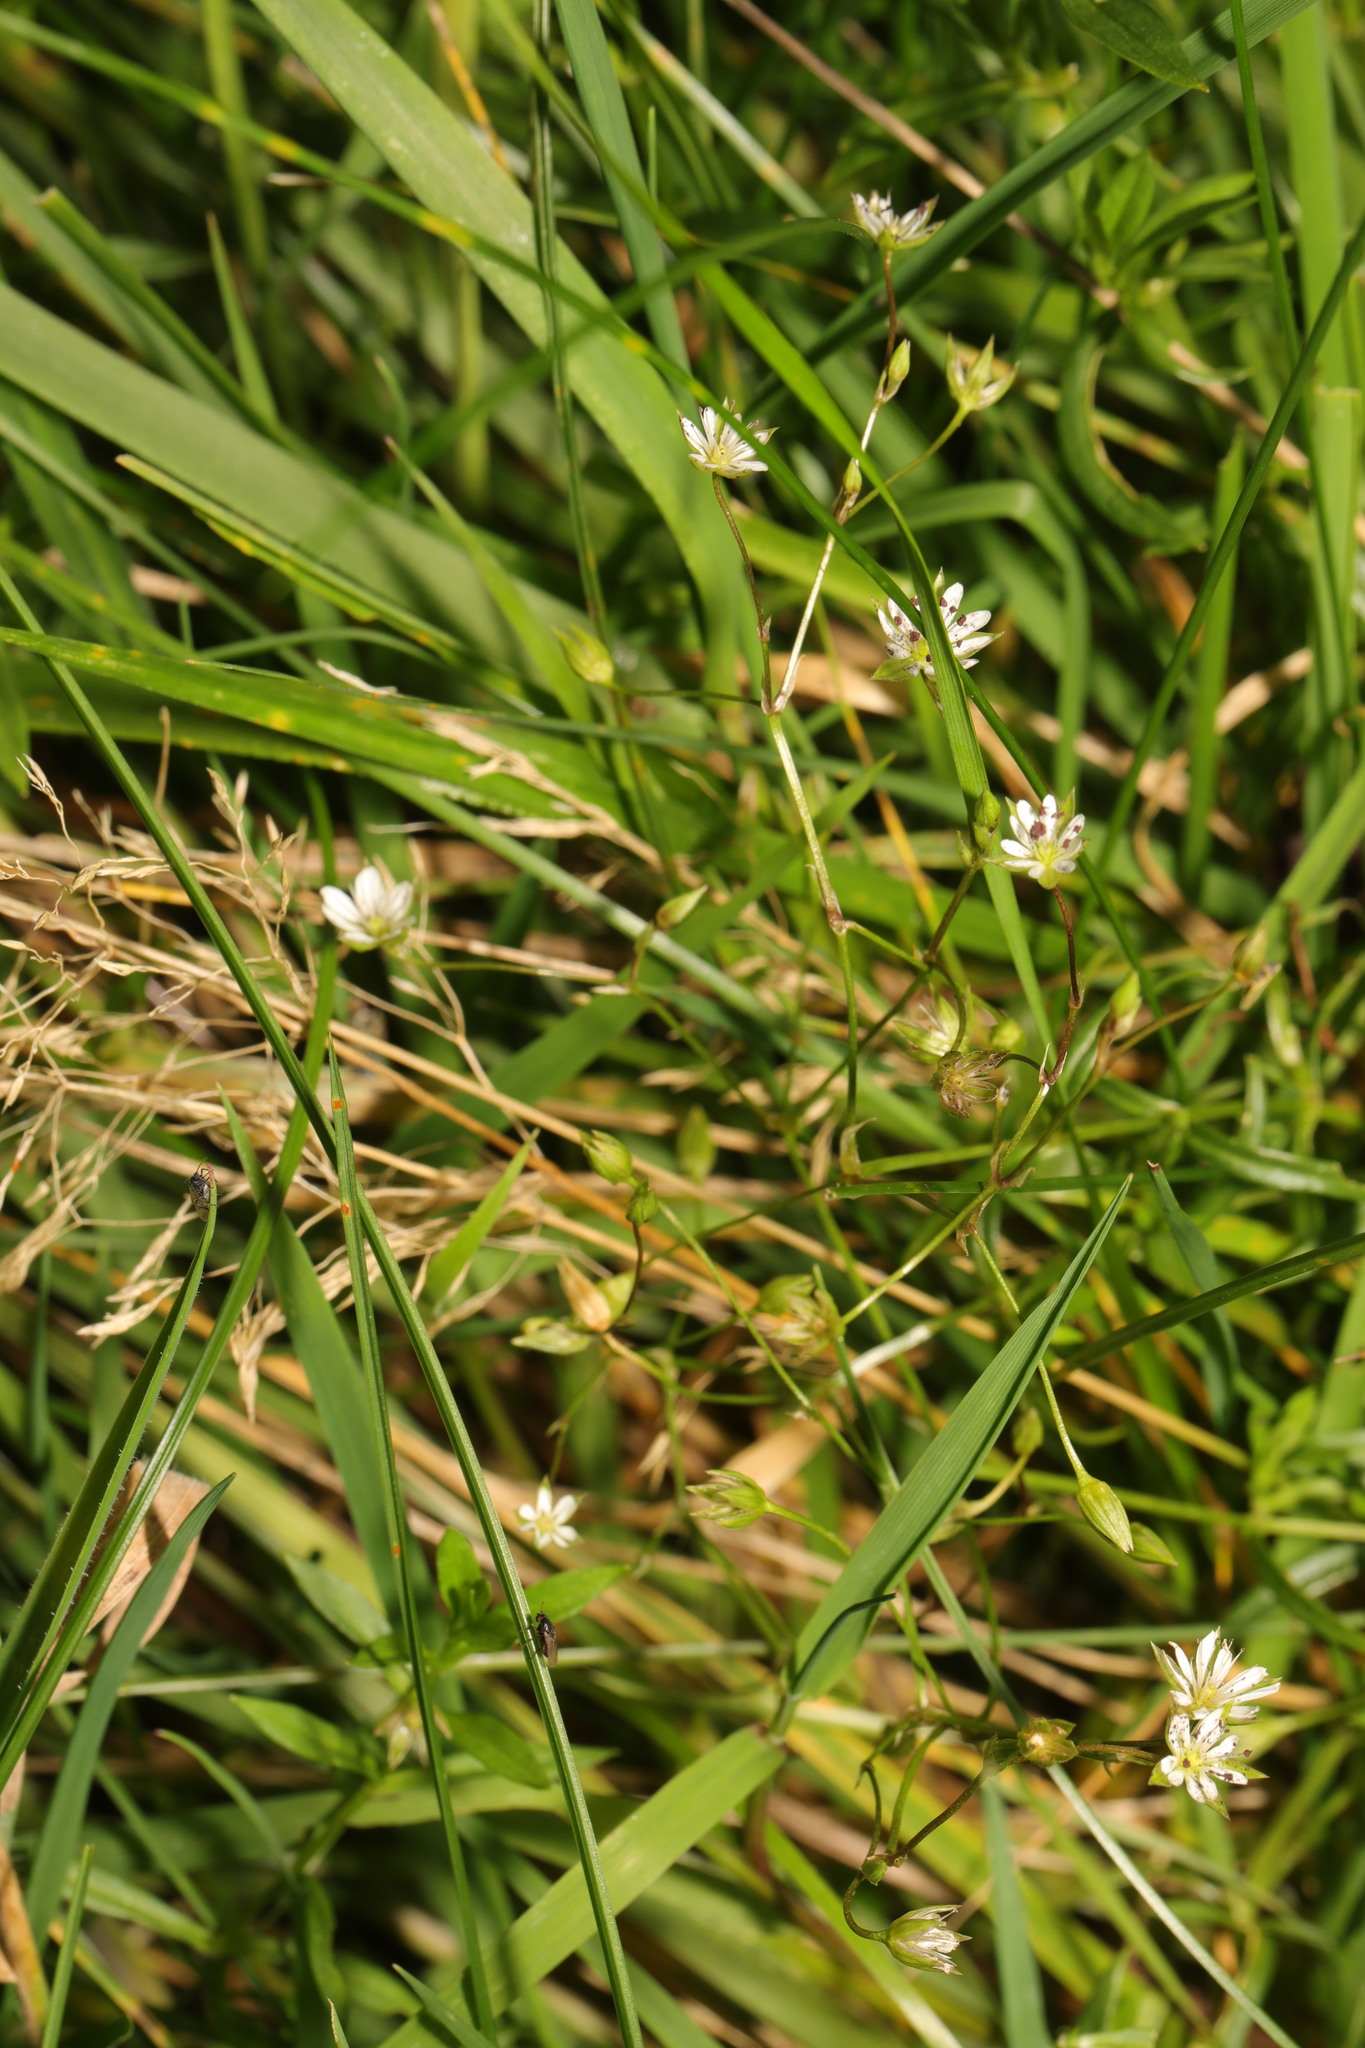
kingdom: Plantae
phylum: Tracheophyta
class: Magnoliopsida
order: Caryophyllales
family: Caryophyllaceae
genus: Stellaria
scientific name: Stellaria graminea
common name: Grass-like starwort
